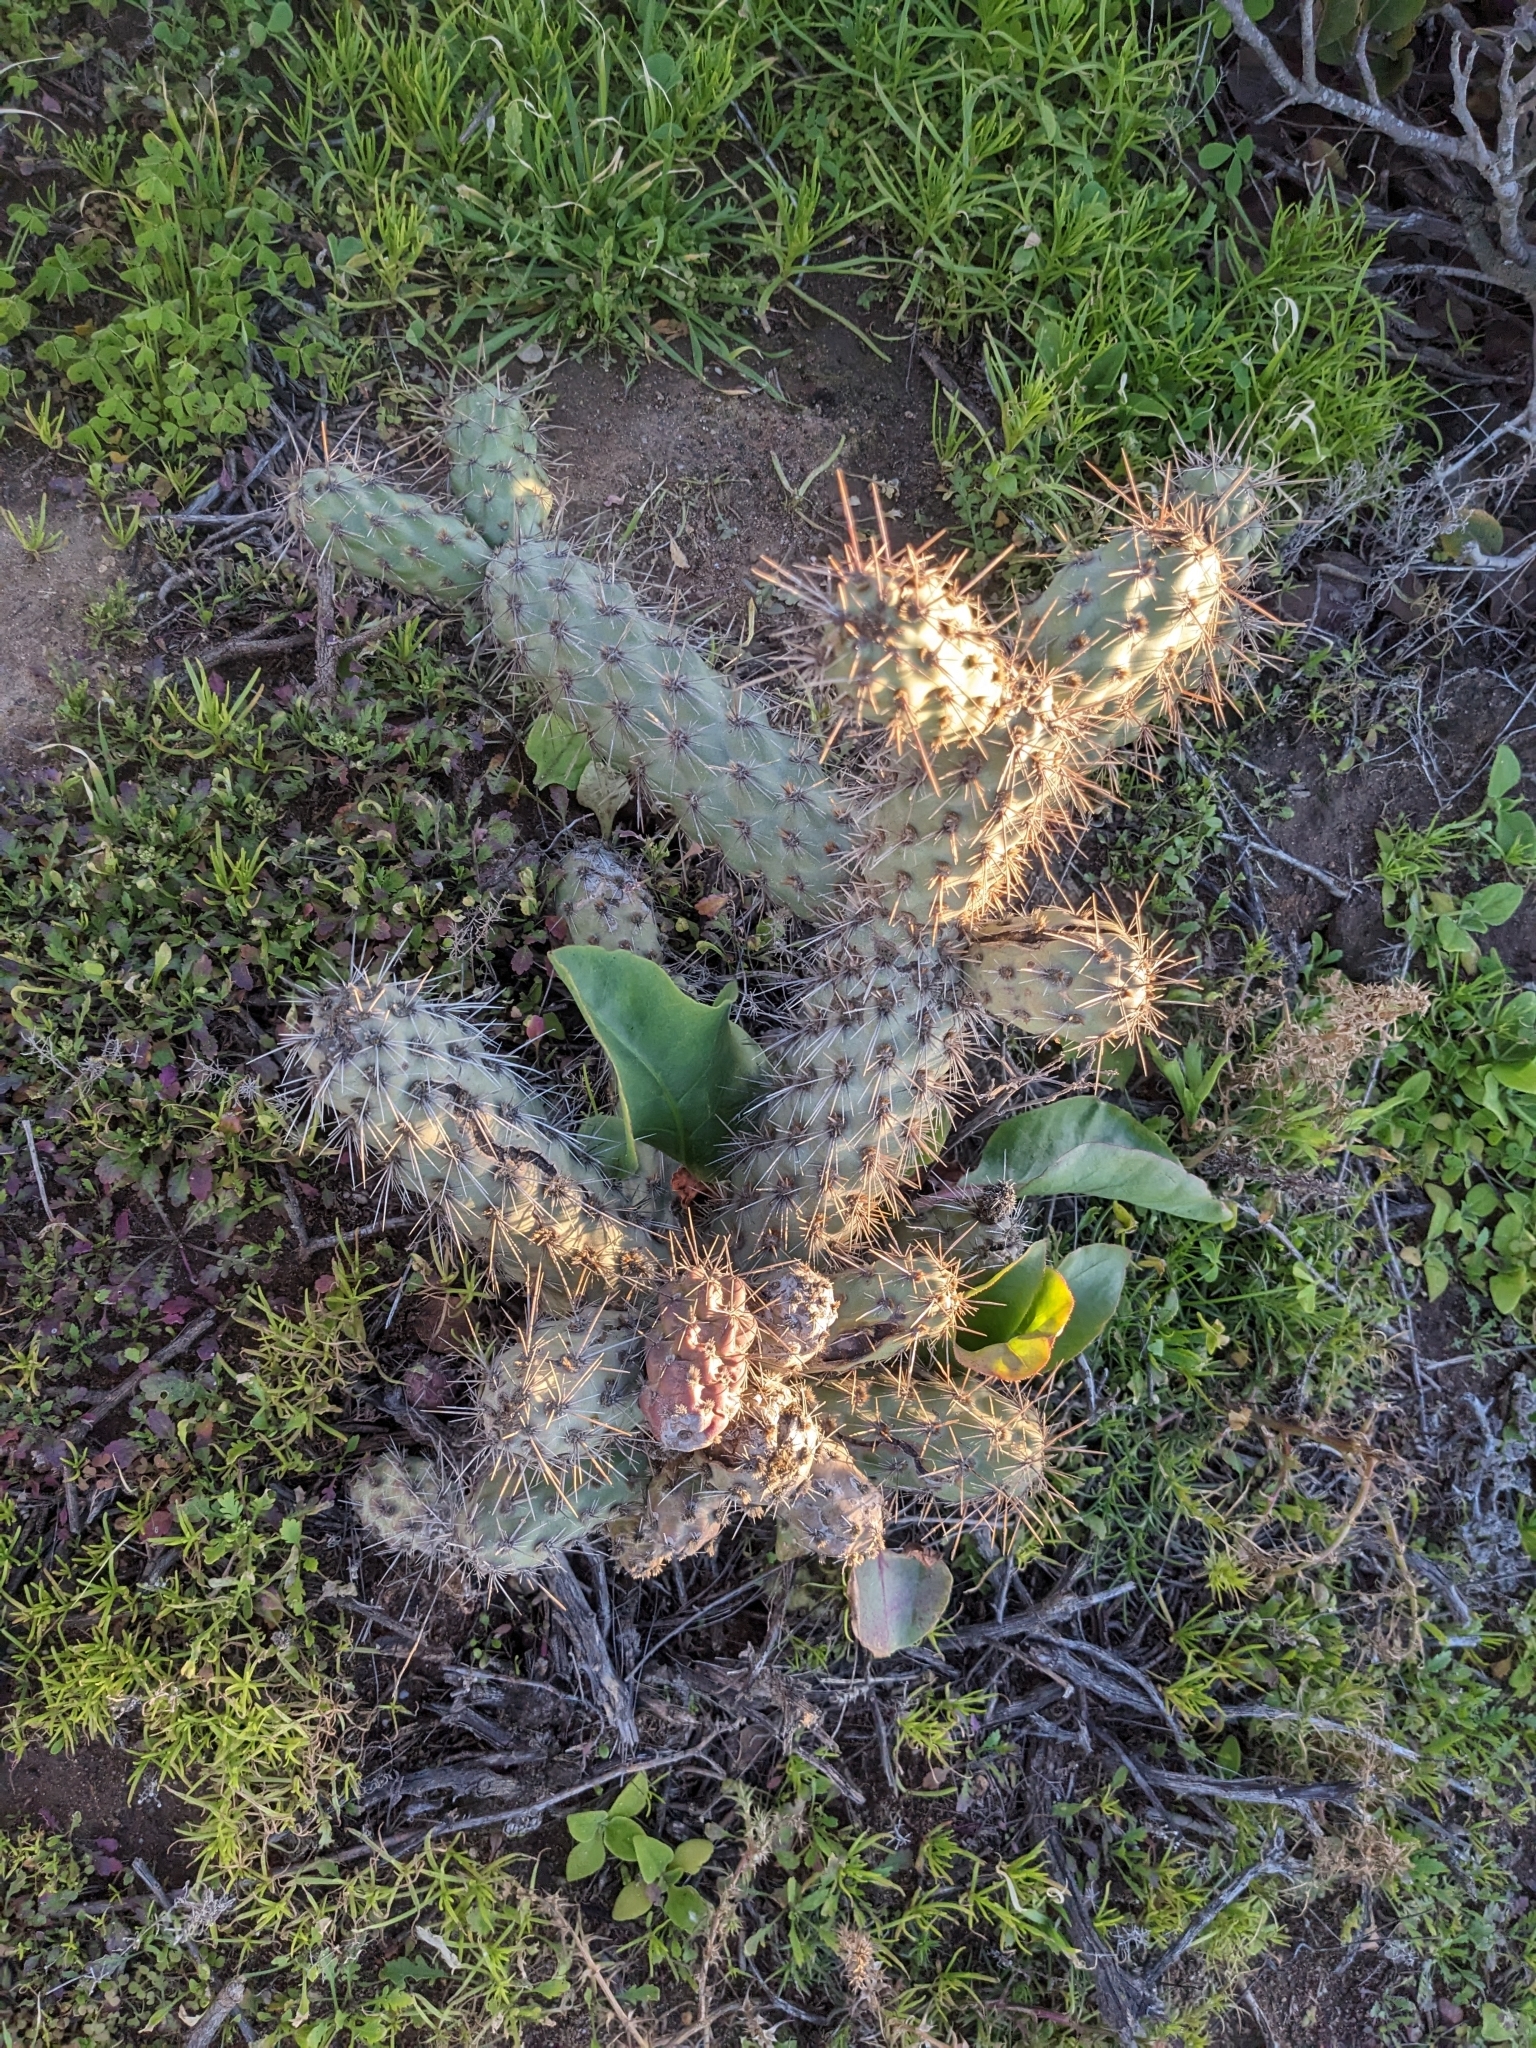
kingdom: Plantae
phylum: Tracheophyta
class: Magnoliopsida
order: Caryophyllales
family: Cactaceae
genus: Cylindropuntia
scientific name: Cylindropuntia prolifera
